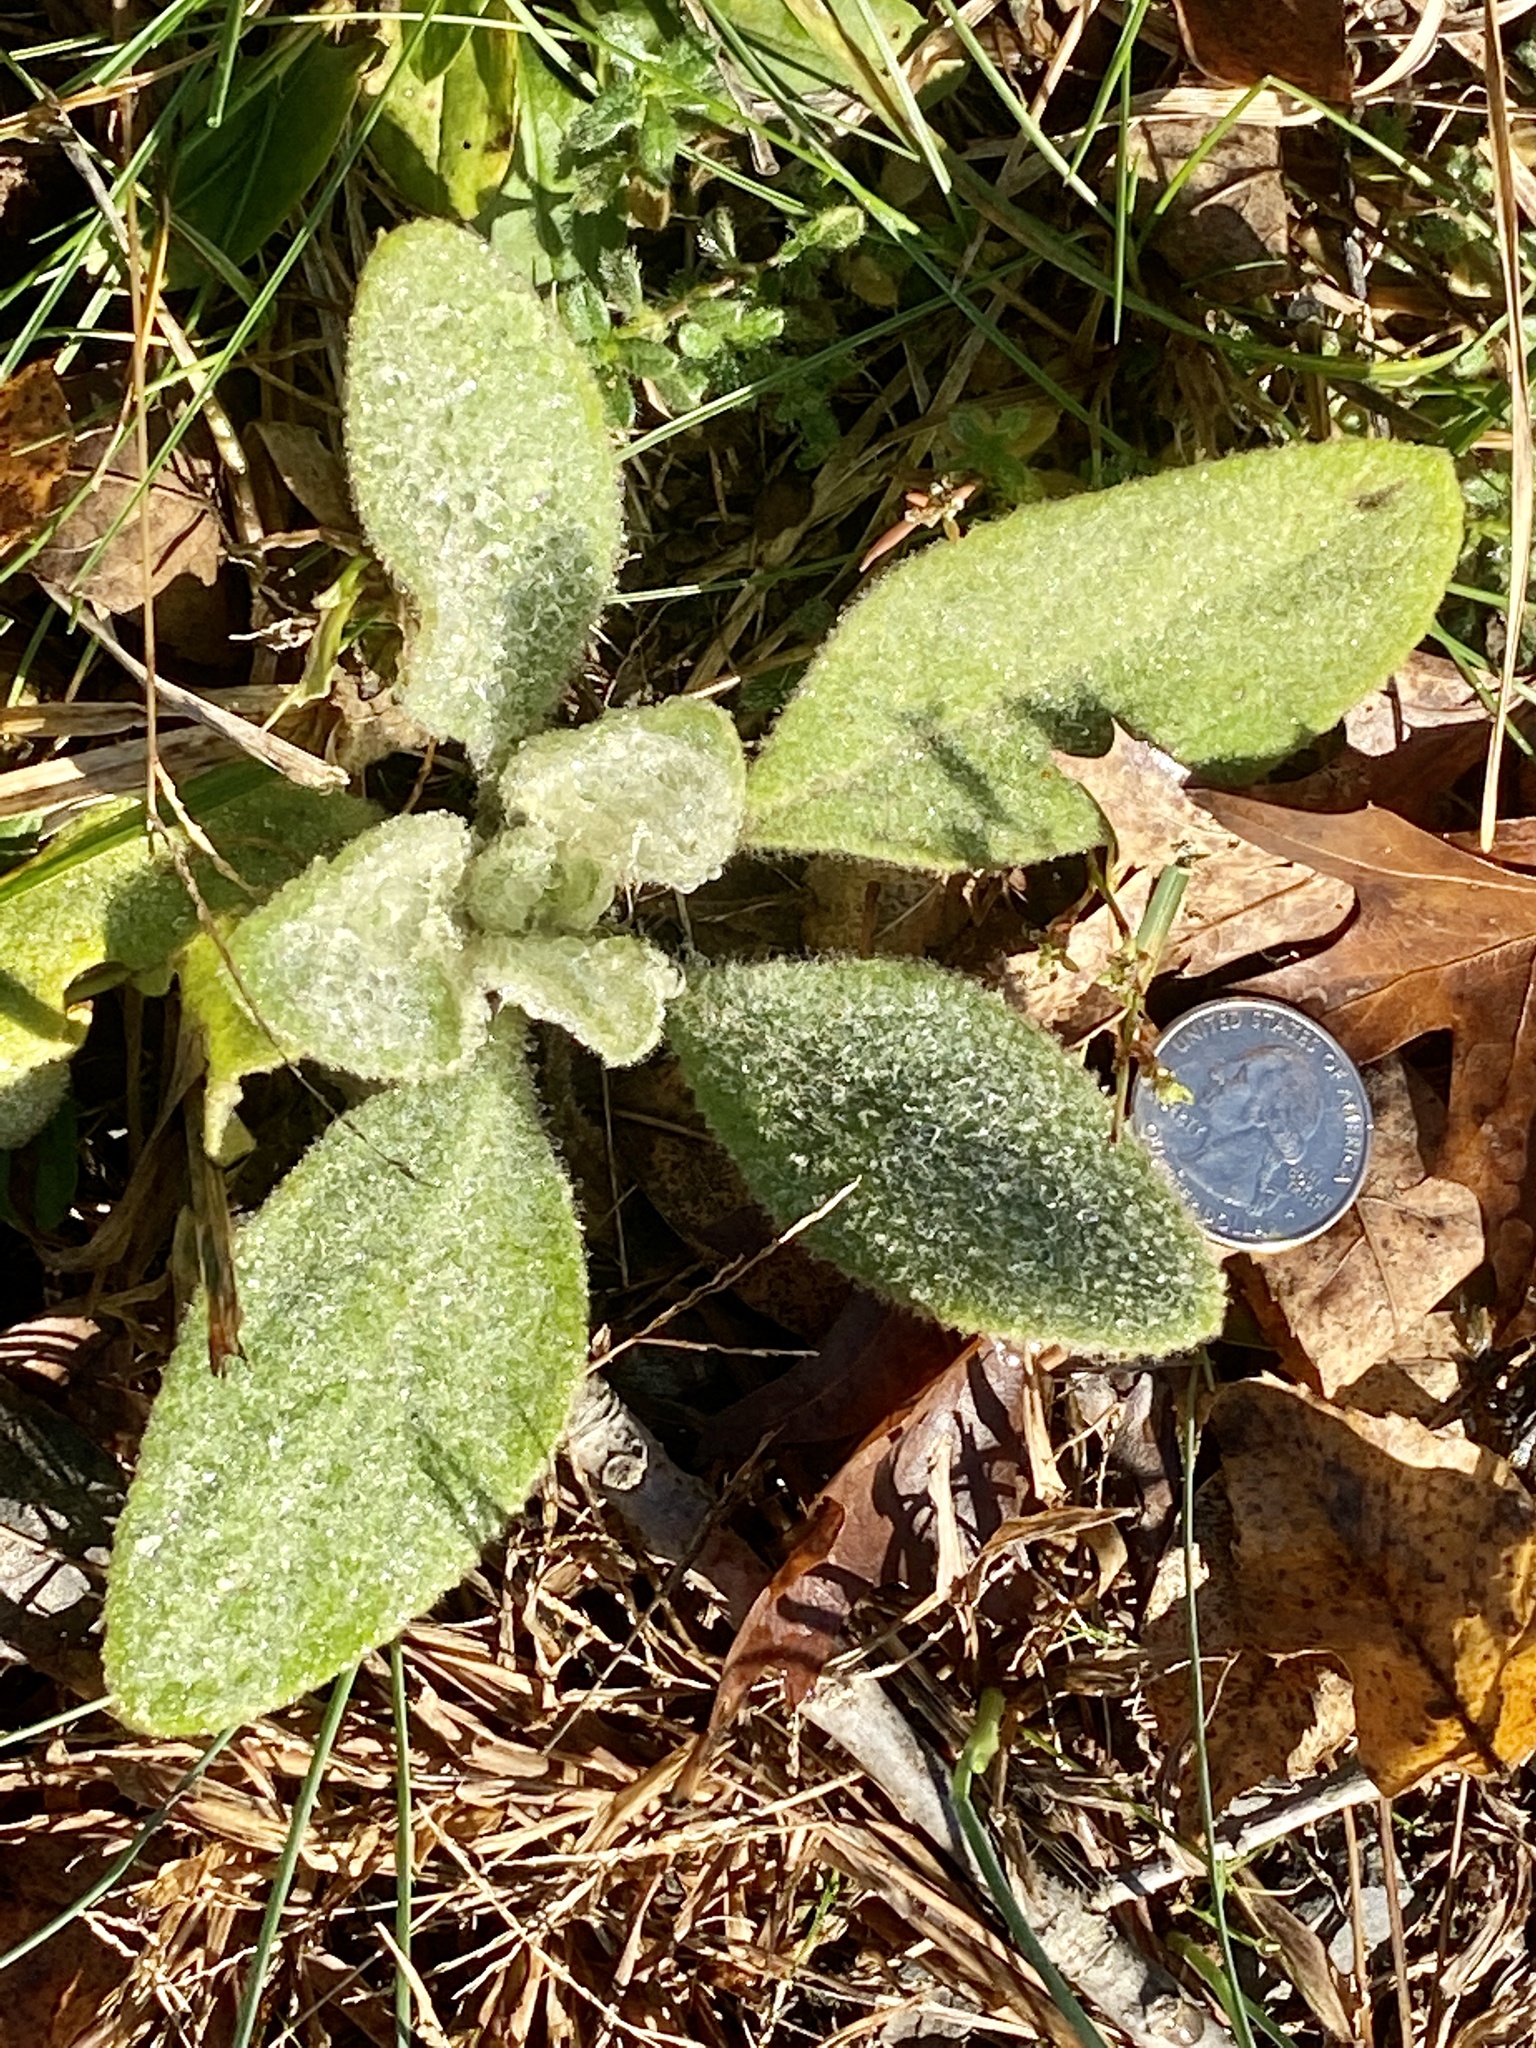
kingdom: Plantae
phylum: Tracheophyta
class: Magnoliopsida
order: Lamiales
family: Scrophulariaceae
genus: Verbascum
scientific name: Verbascum thapsus
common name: Common mullein
